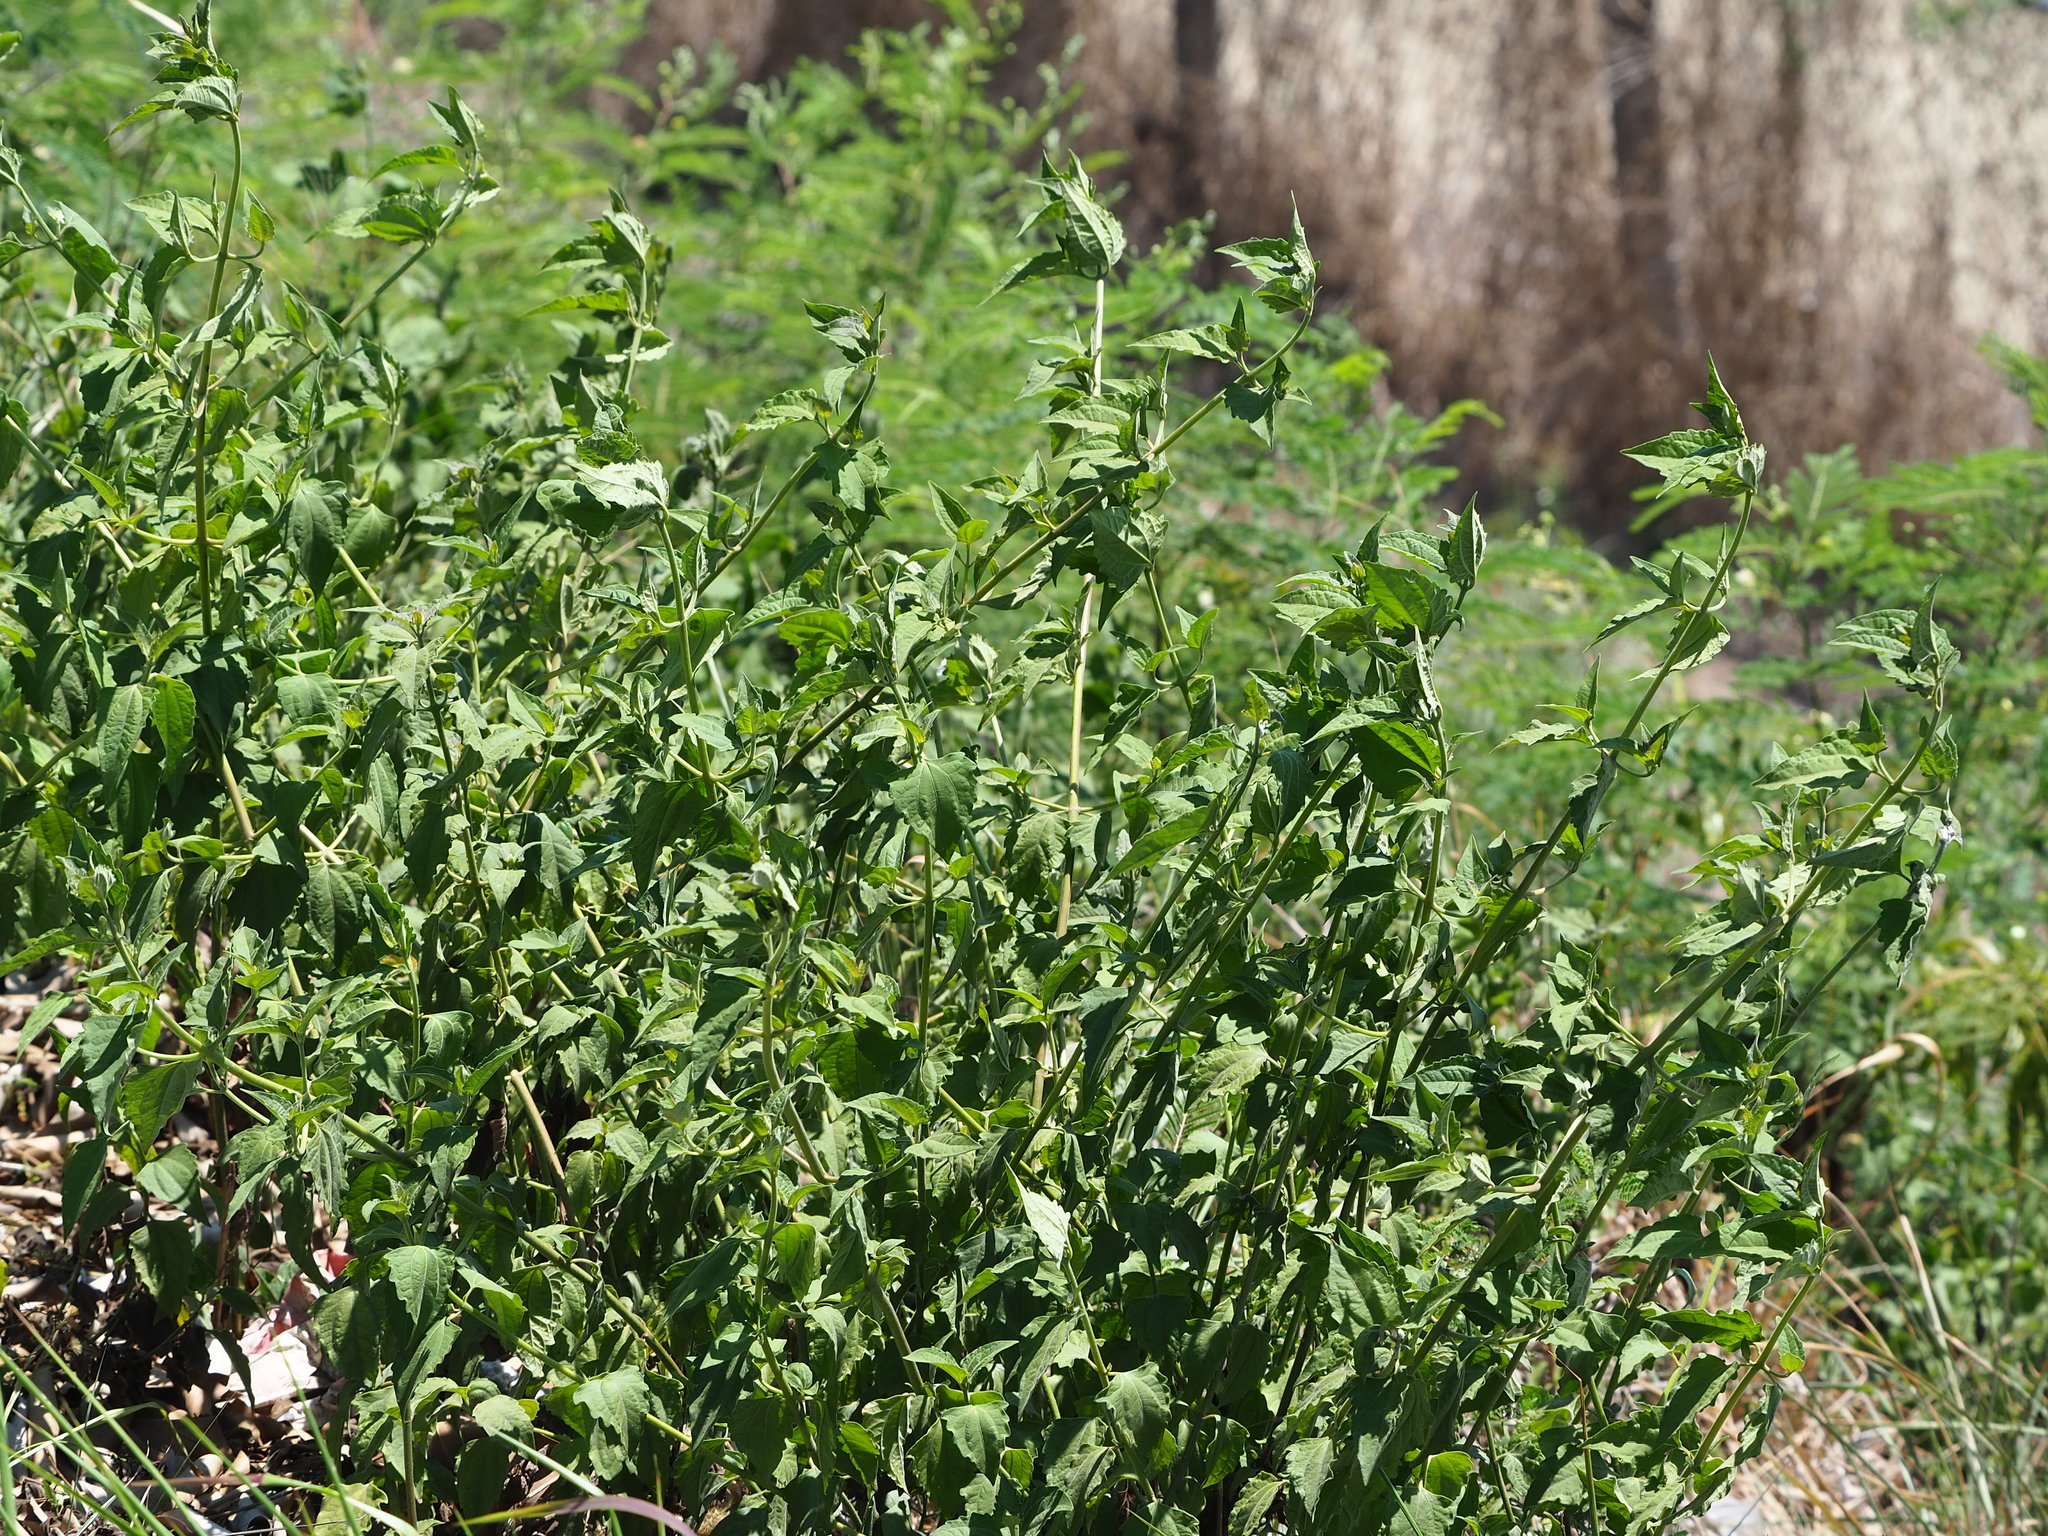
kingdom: Plantae
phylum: Tracheophyta
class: Magnoliopsida
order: Asterales
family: Asteraceae
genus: Chromolaena
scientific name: Chromolaena odorata
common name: Siamweed
